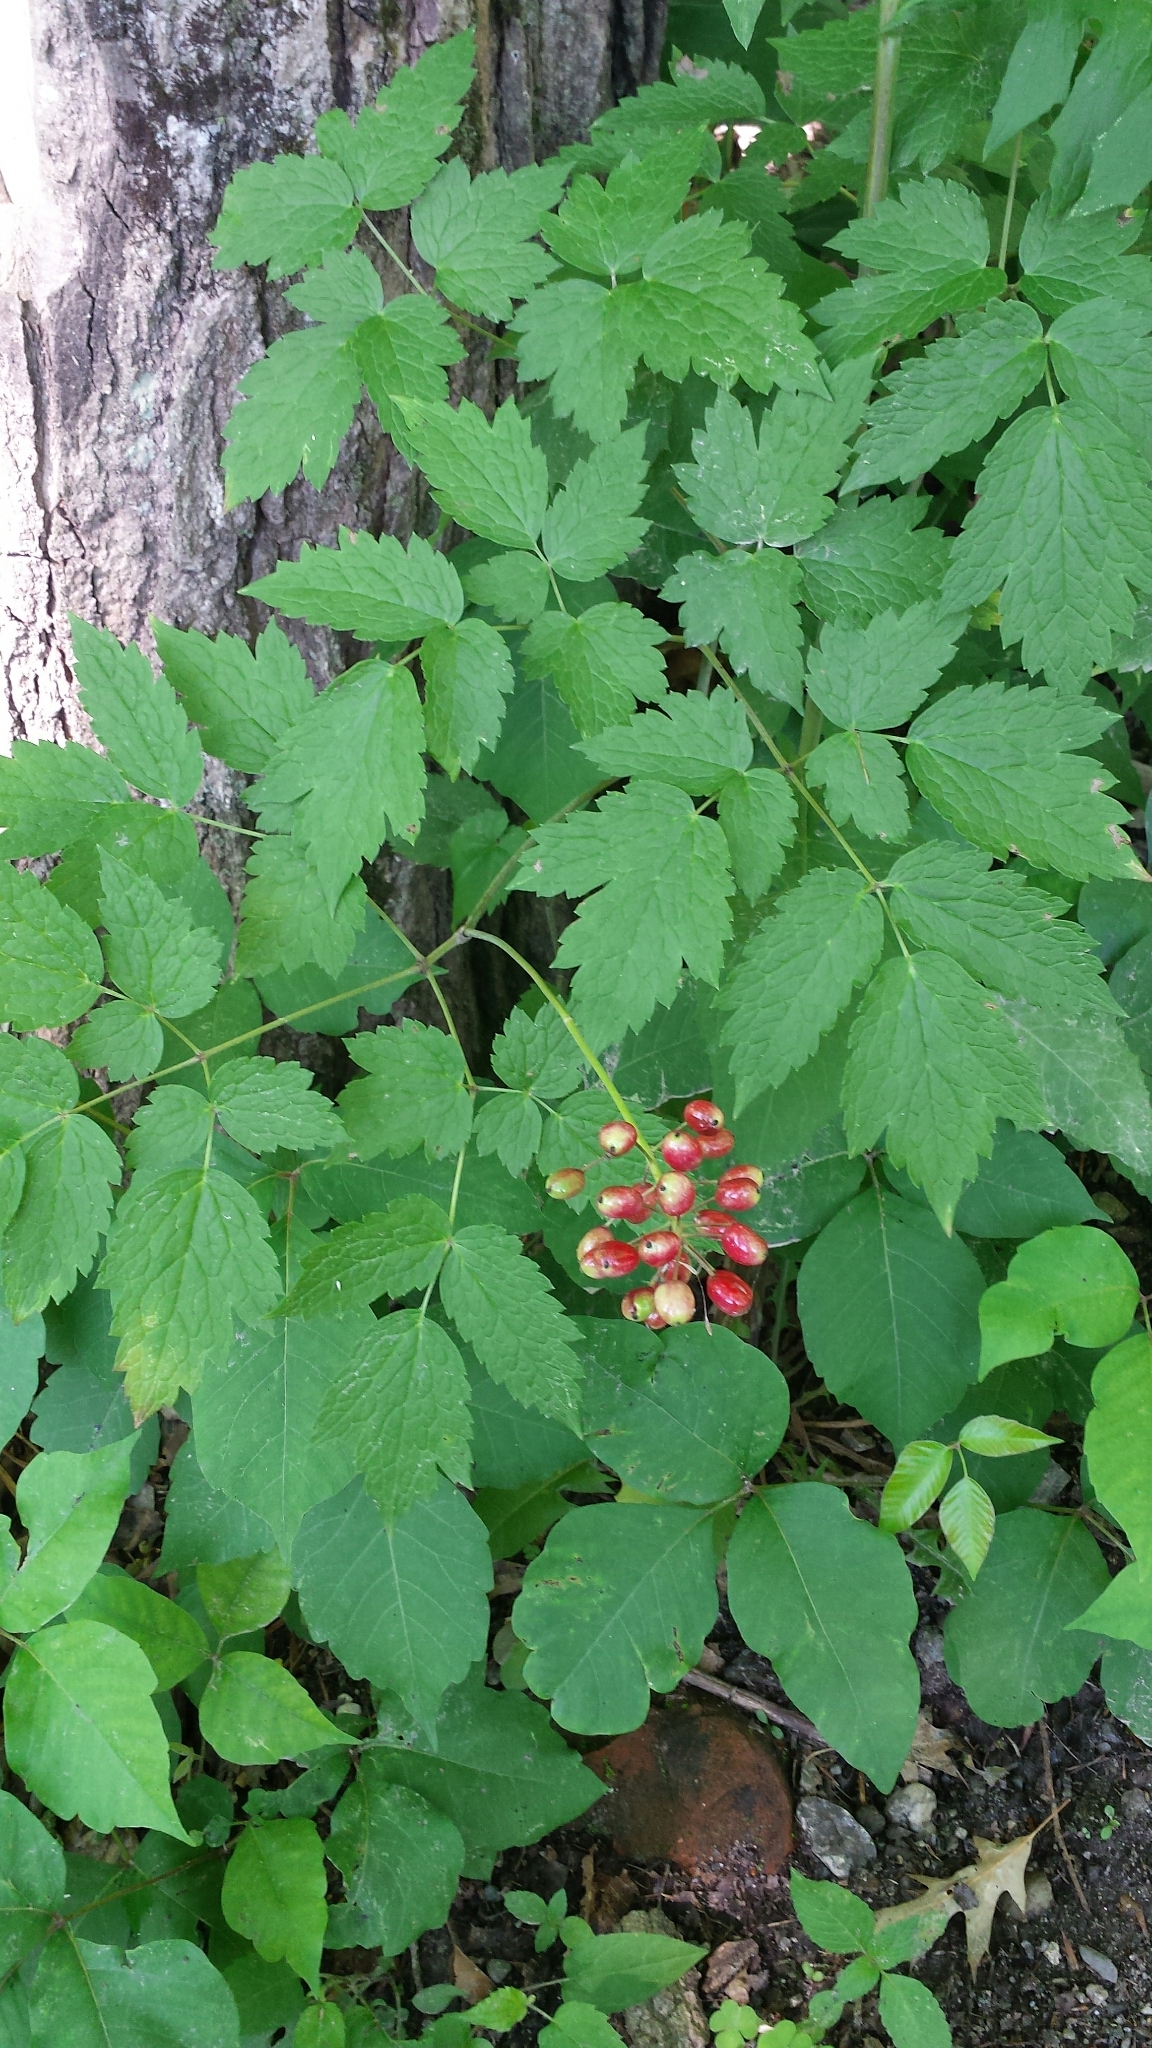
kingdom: Plantae
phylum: Tracheophyta
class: Magnoliopsida
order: Ranunculales
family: Ranunculaceae
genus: Actaea
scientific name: Actaea rubra
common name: Red baneberry
